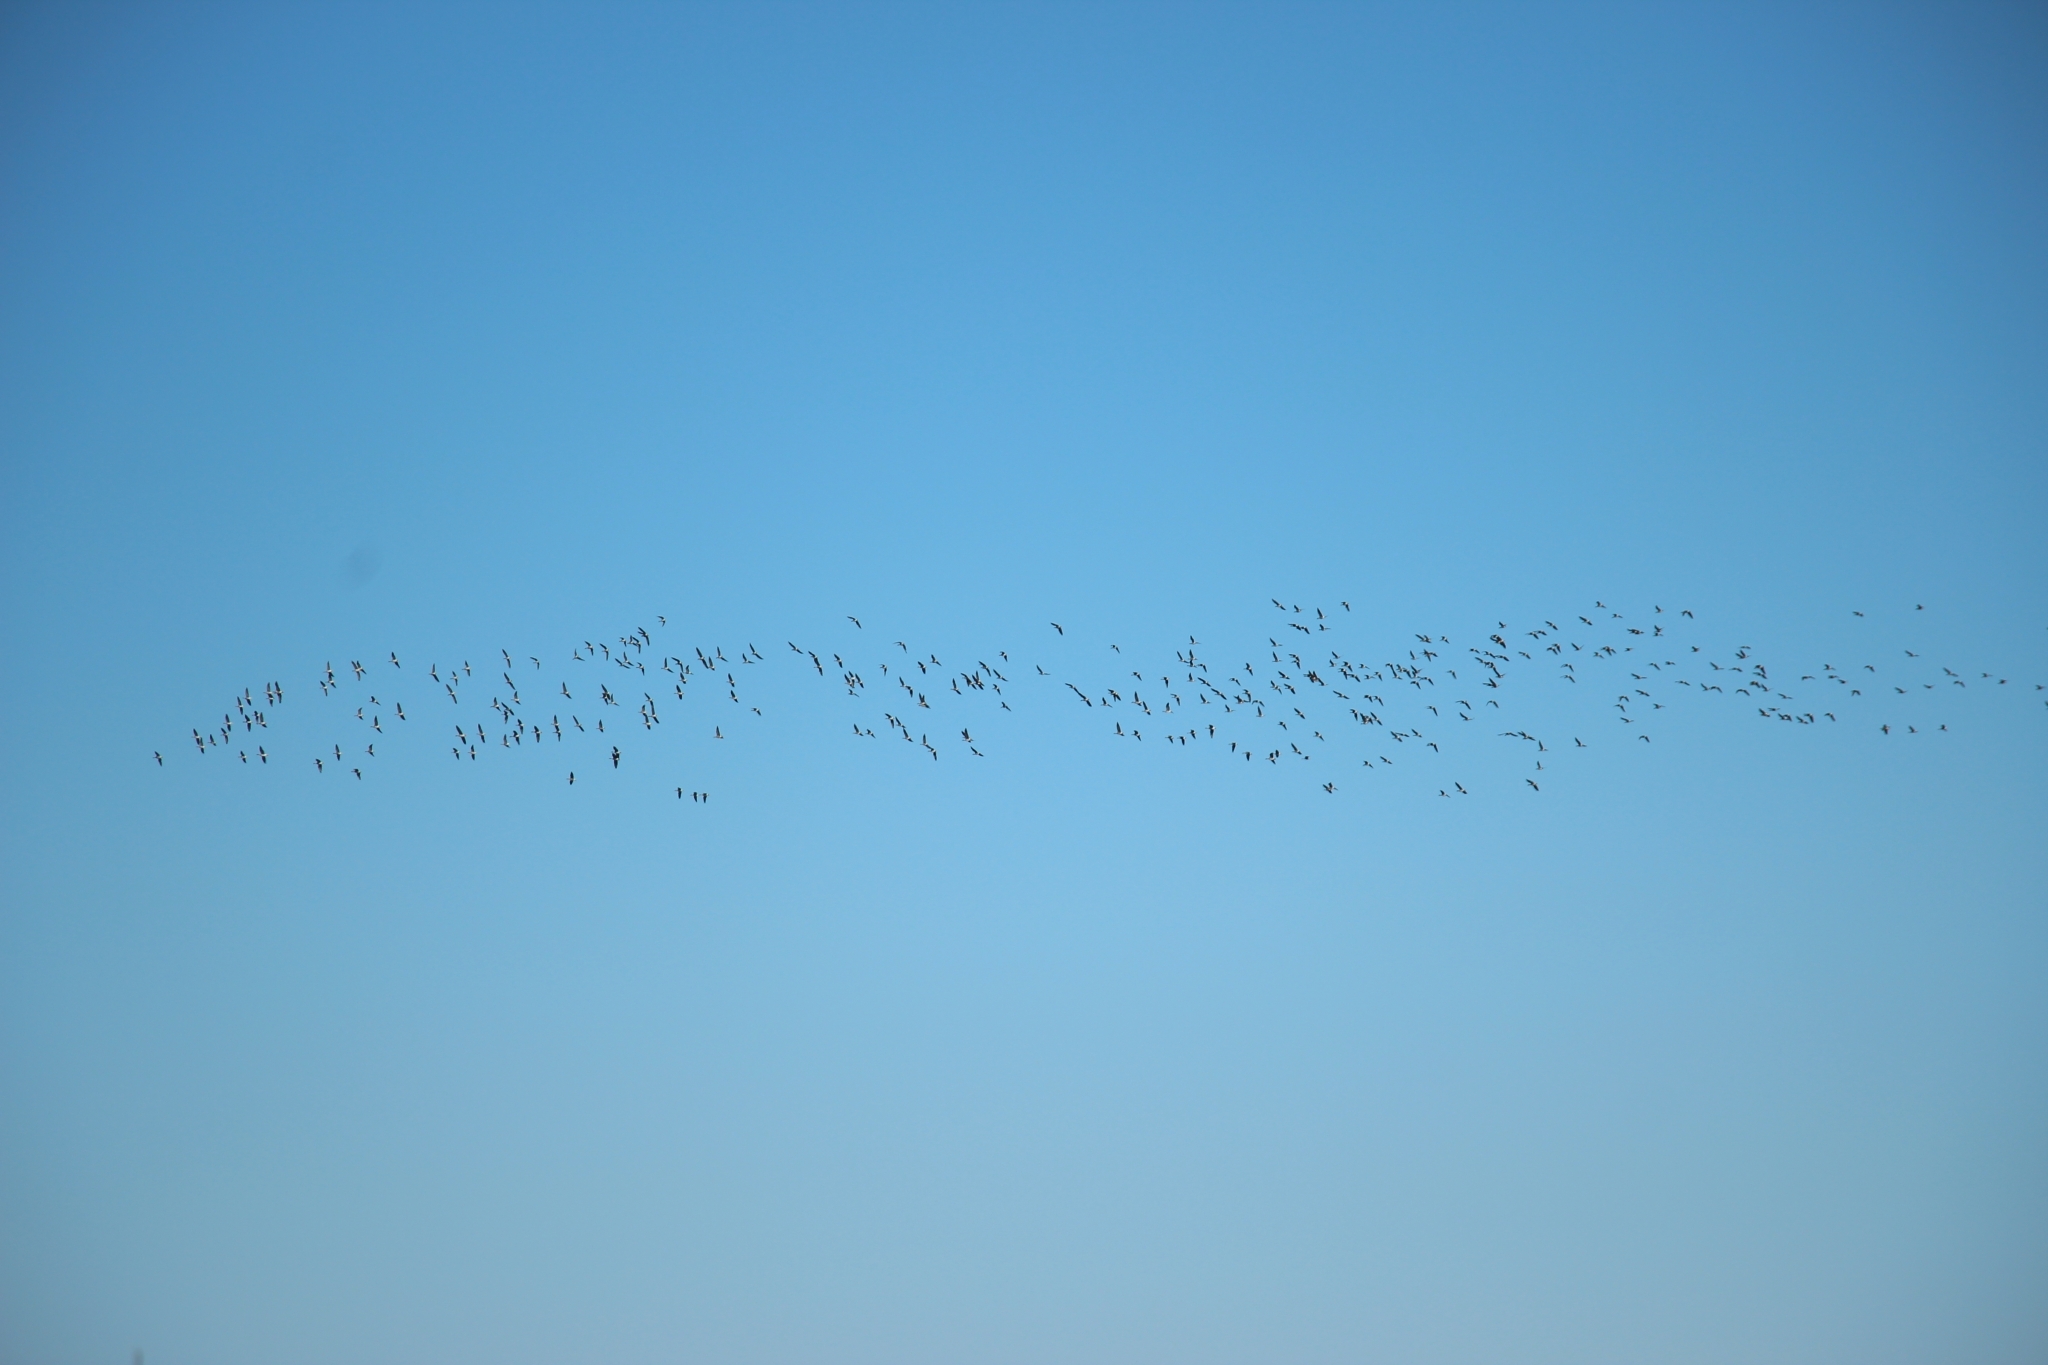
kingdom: Animalia
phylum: Chordata
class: Aves
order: Anseriformes
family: Anatidae
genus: Anser
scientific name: Anser albifrons
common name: Greater white-fronted goose
